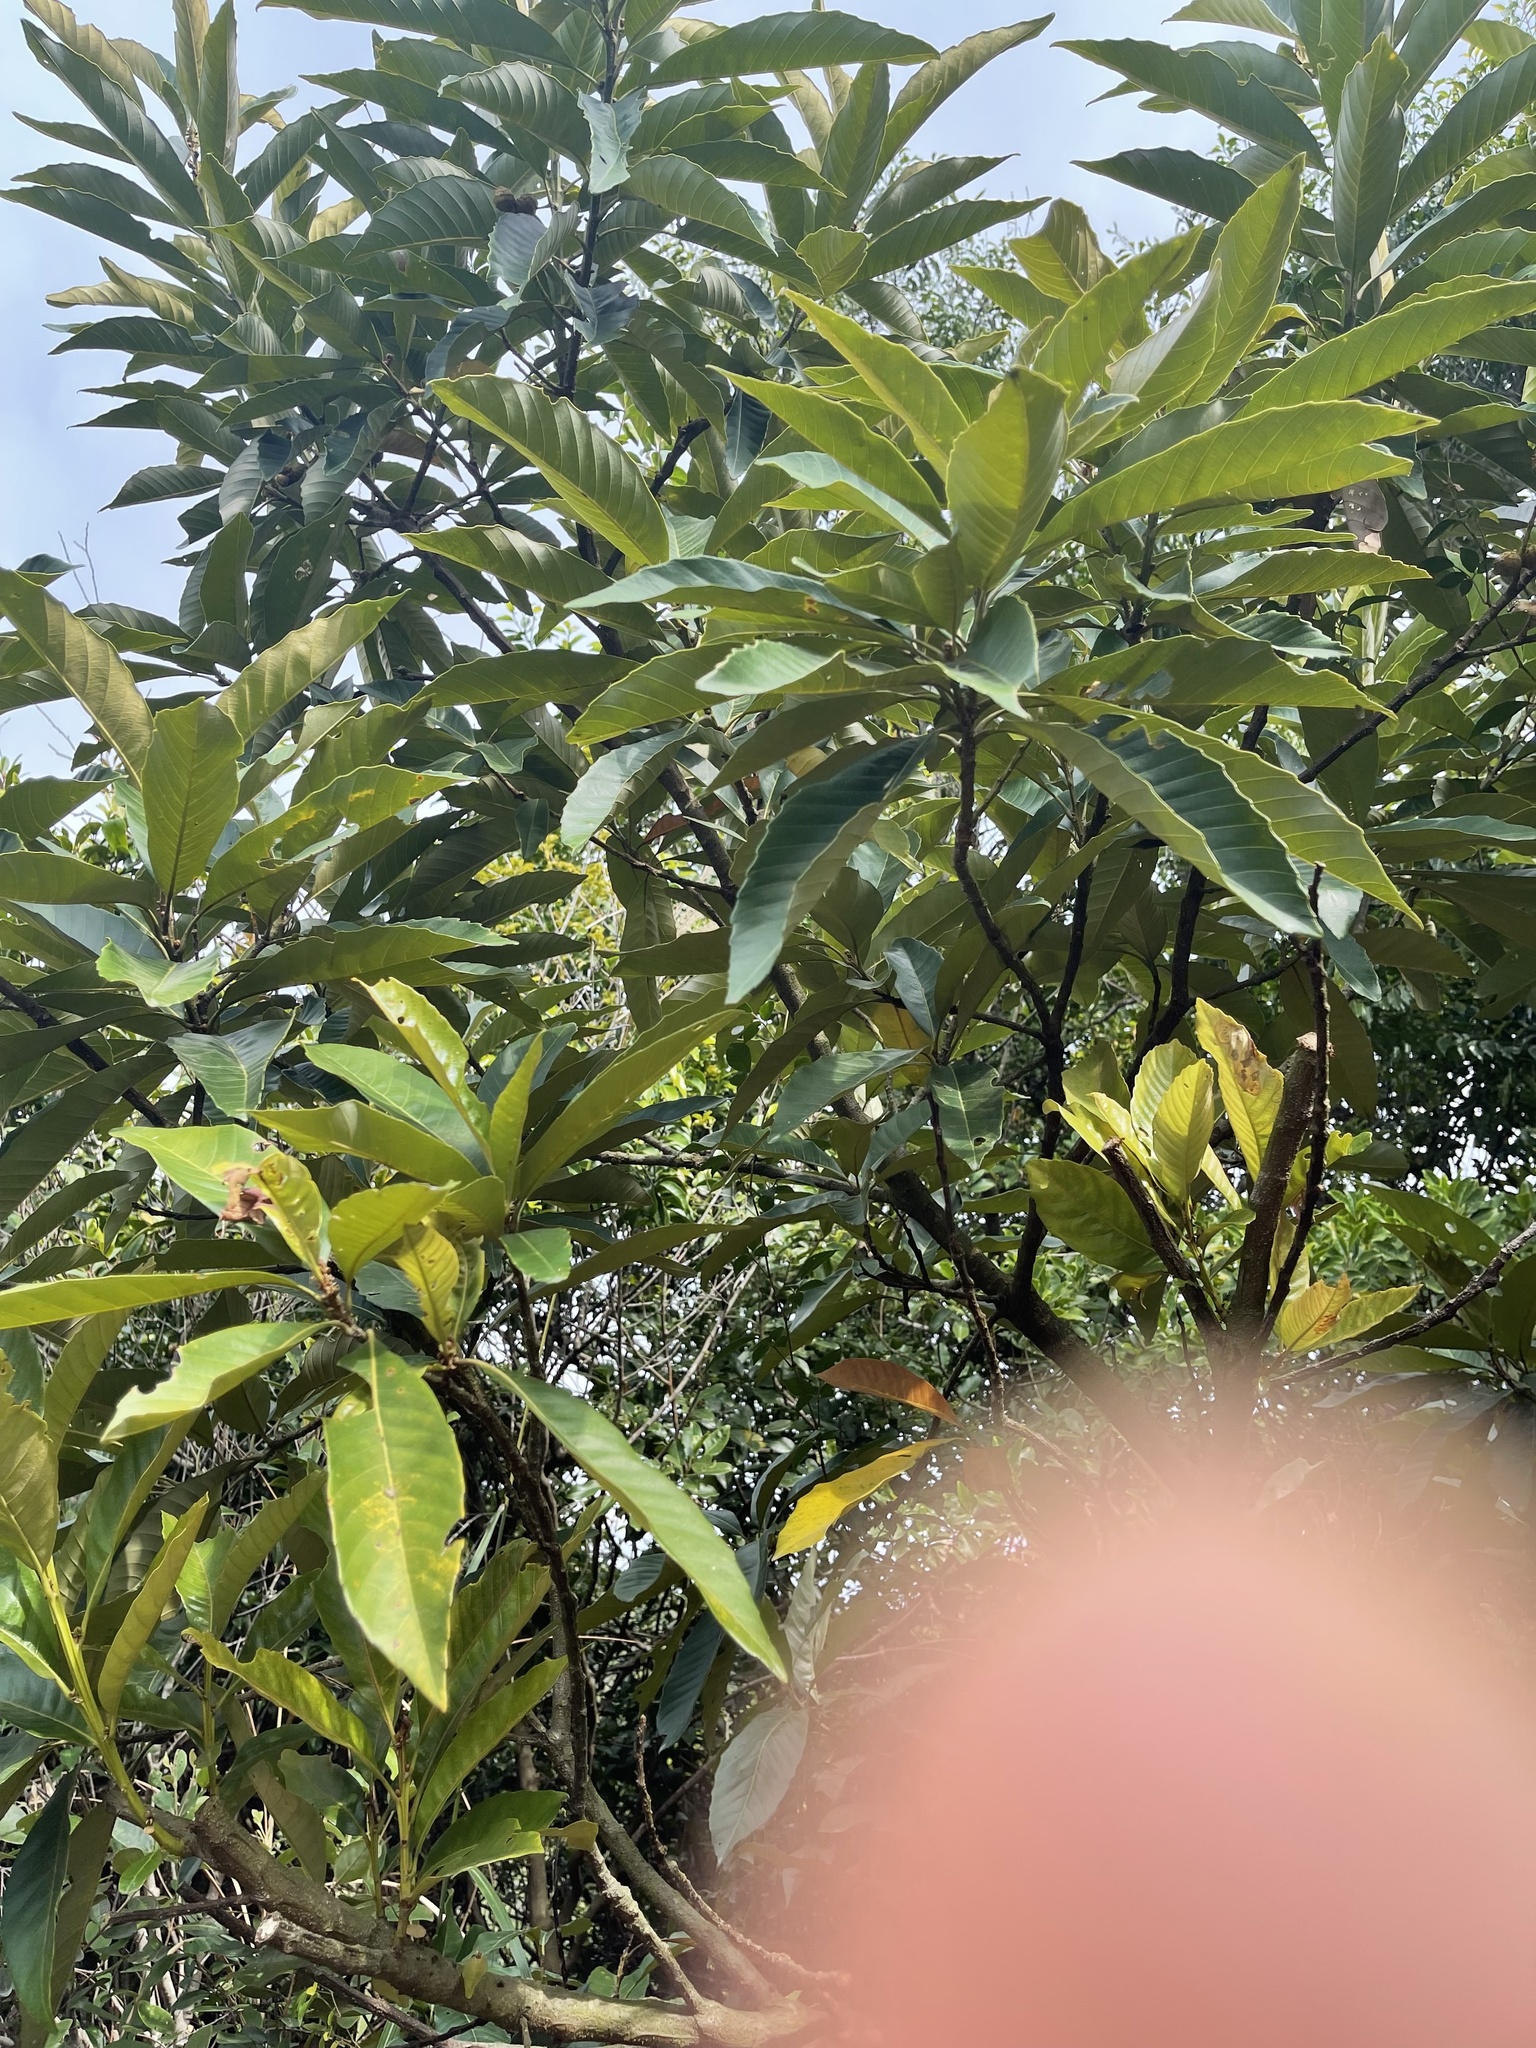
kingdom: Plantae
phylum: Tracheophyta
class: Magnoliopsida
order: Fagales
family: Fagaceae
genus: Castanopsis
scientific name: Castanopsis fissa
